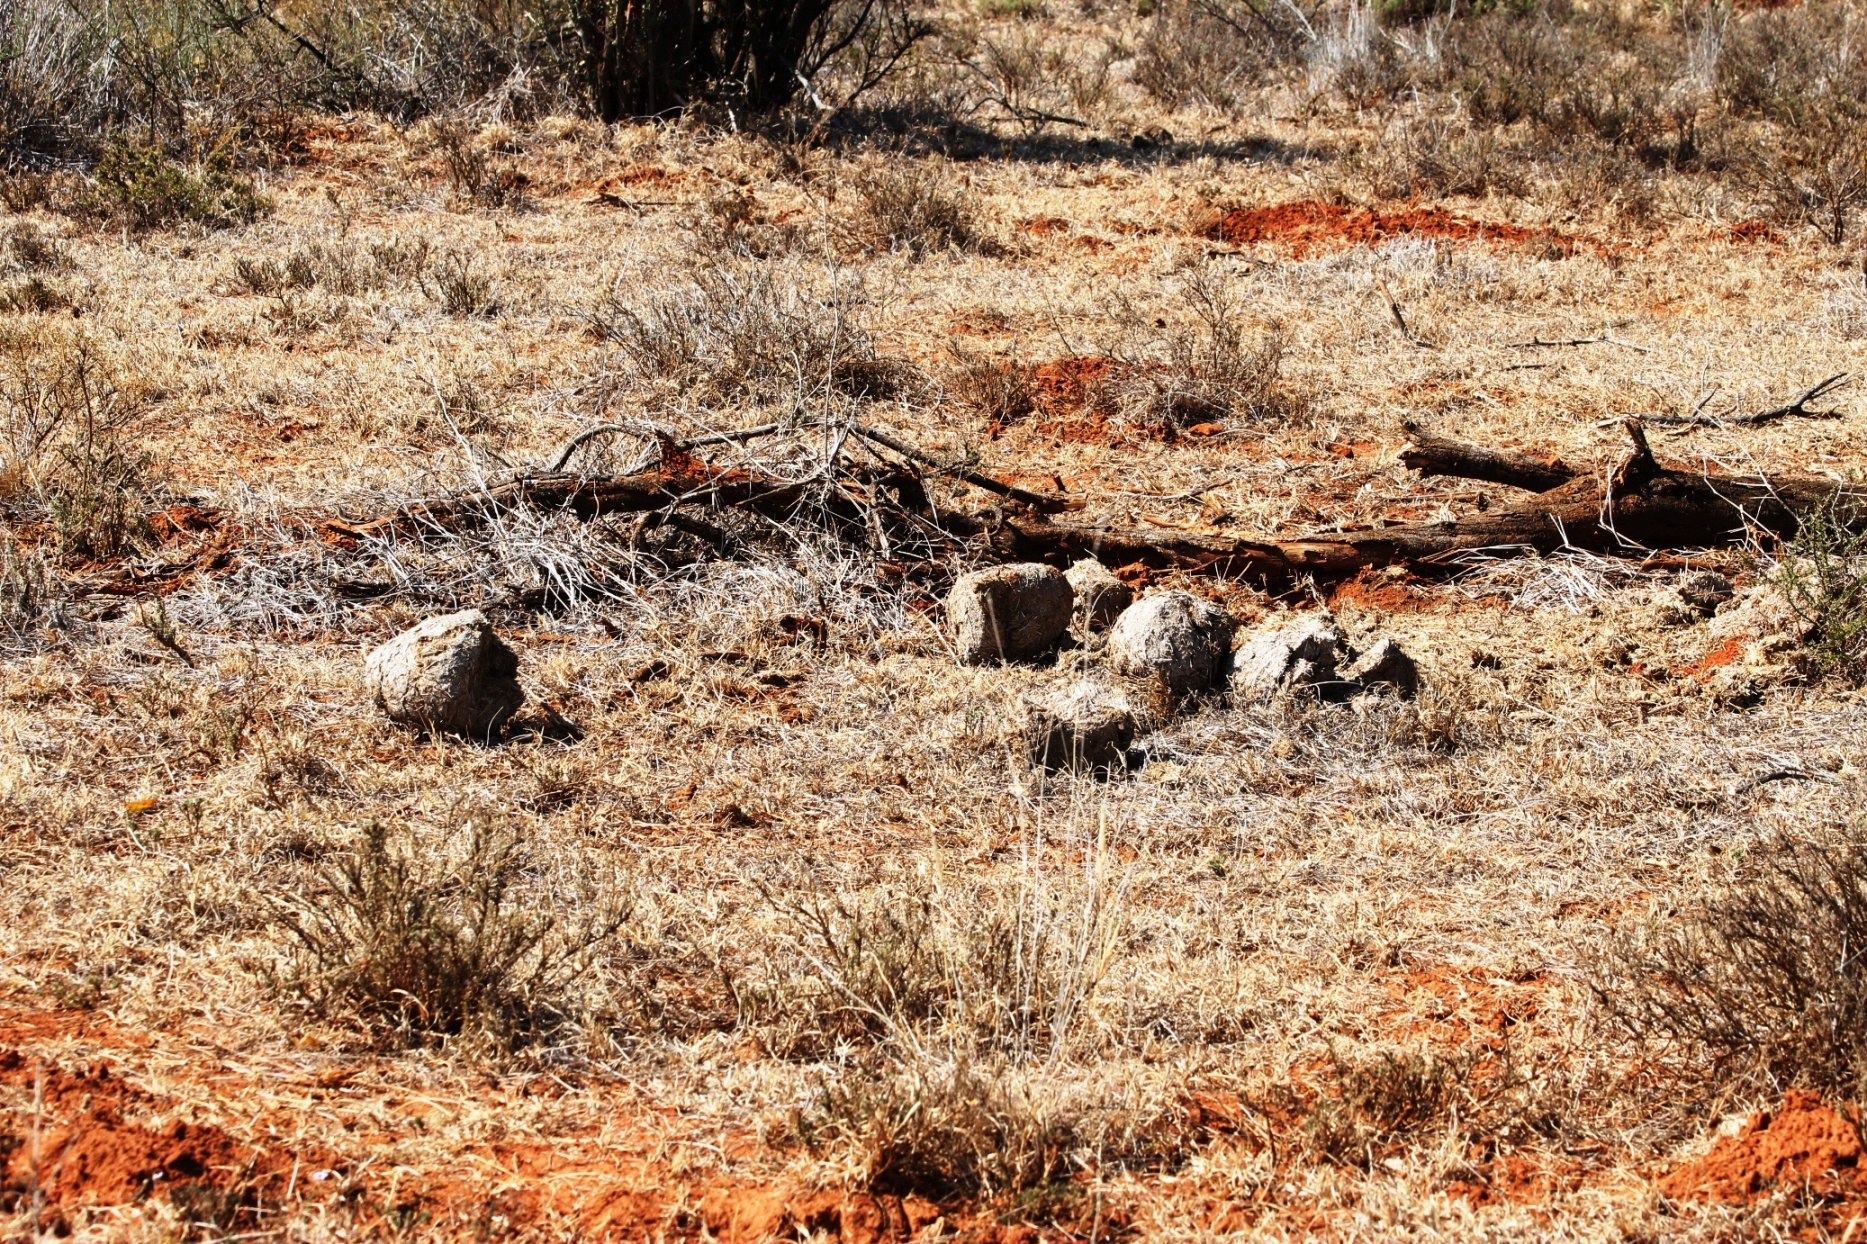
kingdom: Animalia
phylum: Chordata
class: Mammalia
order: Perissodactyla
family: Rhinocerotidae
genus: Ceratotherium
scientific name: Ceratotherium simum
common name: White rhinoceros
